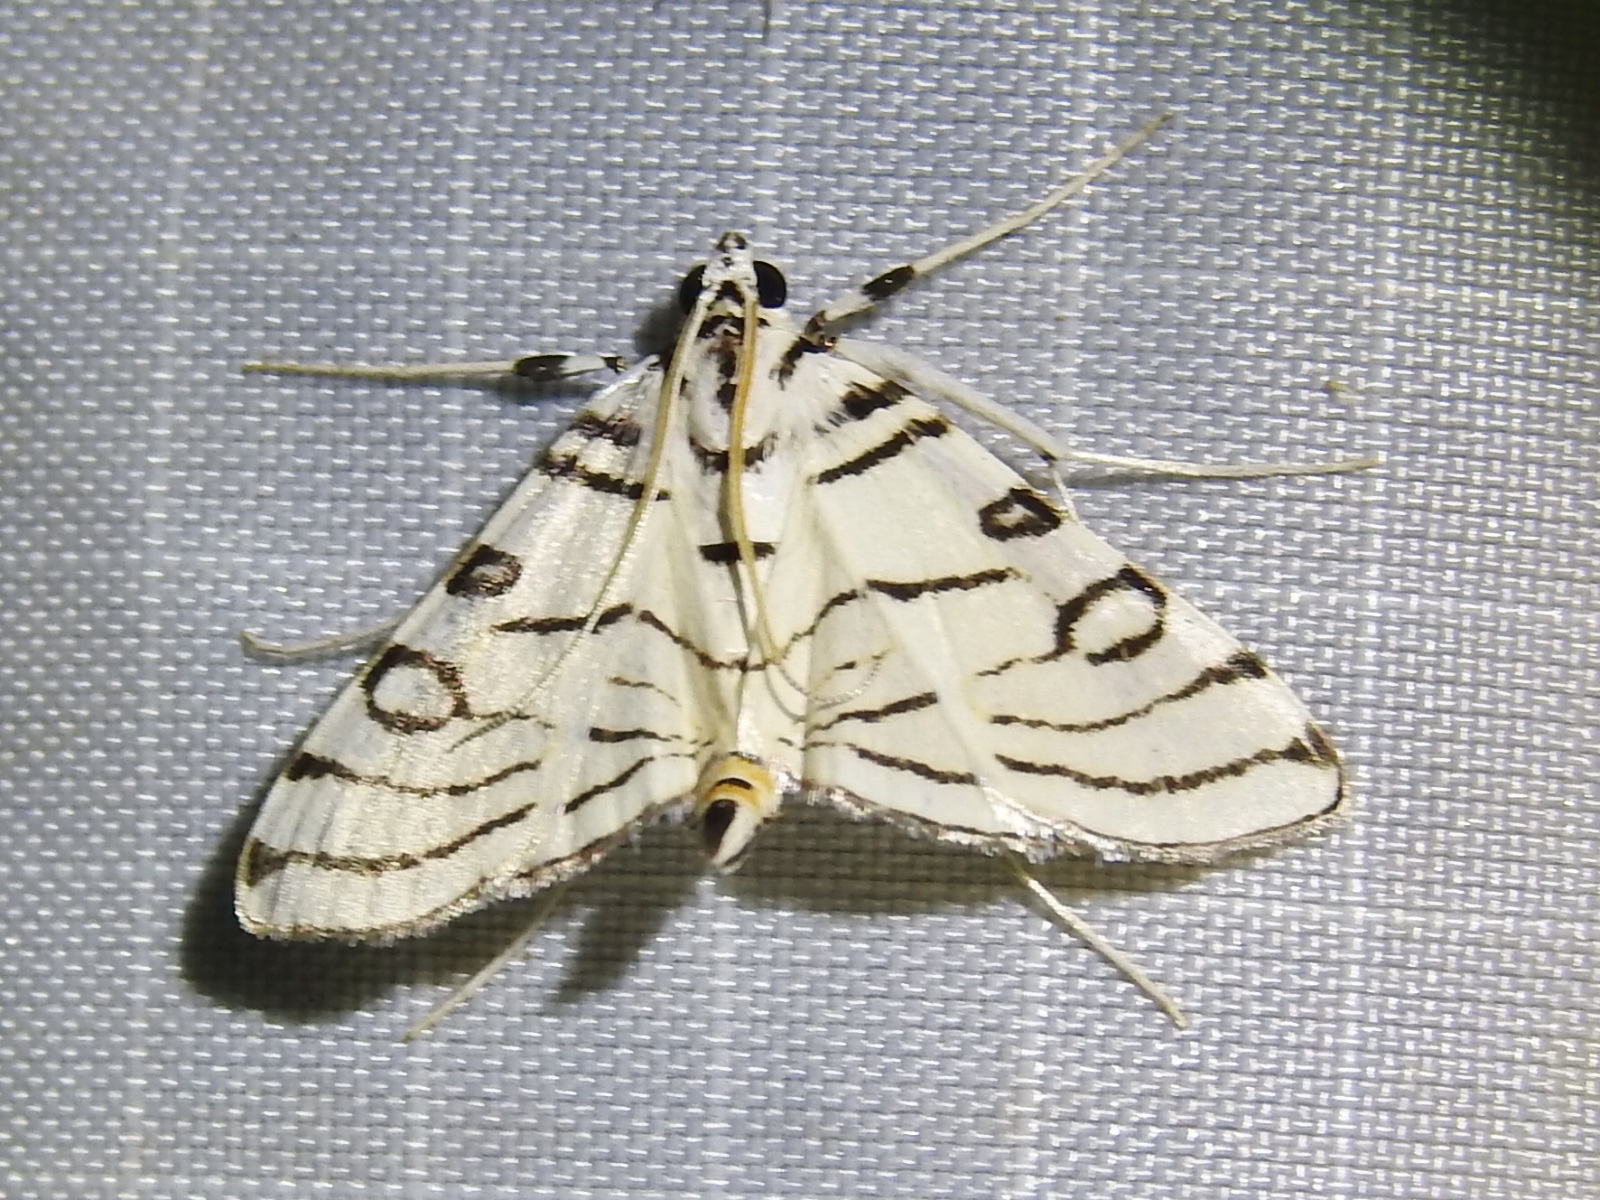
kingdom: Animalia
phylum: Arthropoda
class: Insecta
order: Lepidoptera
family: Crambidae
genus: Conchylodes
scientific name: Conchylodes concinnalis
